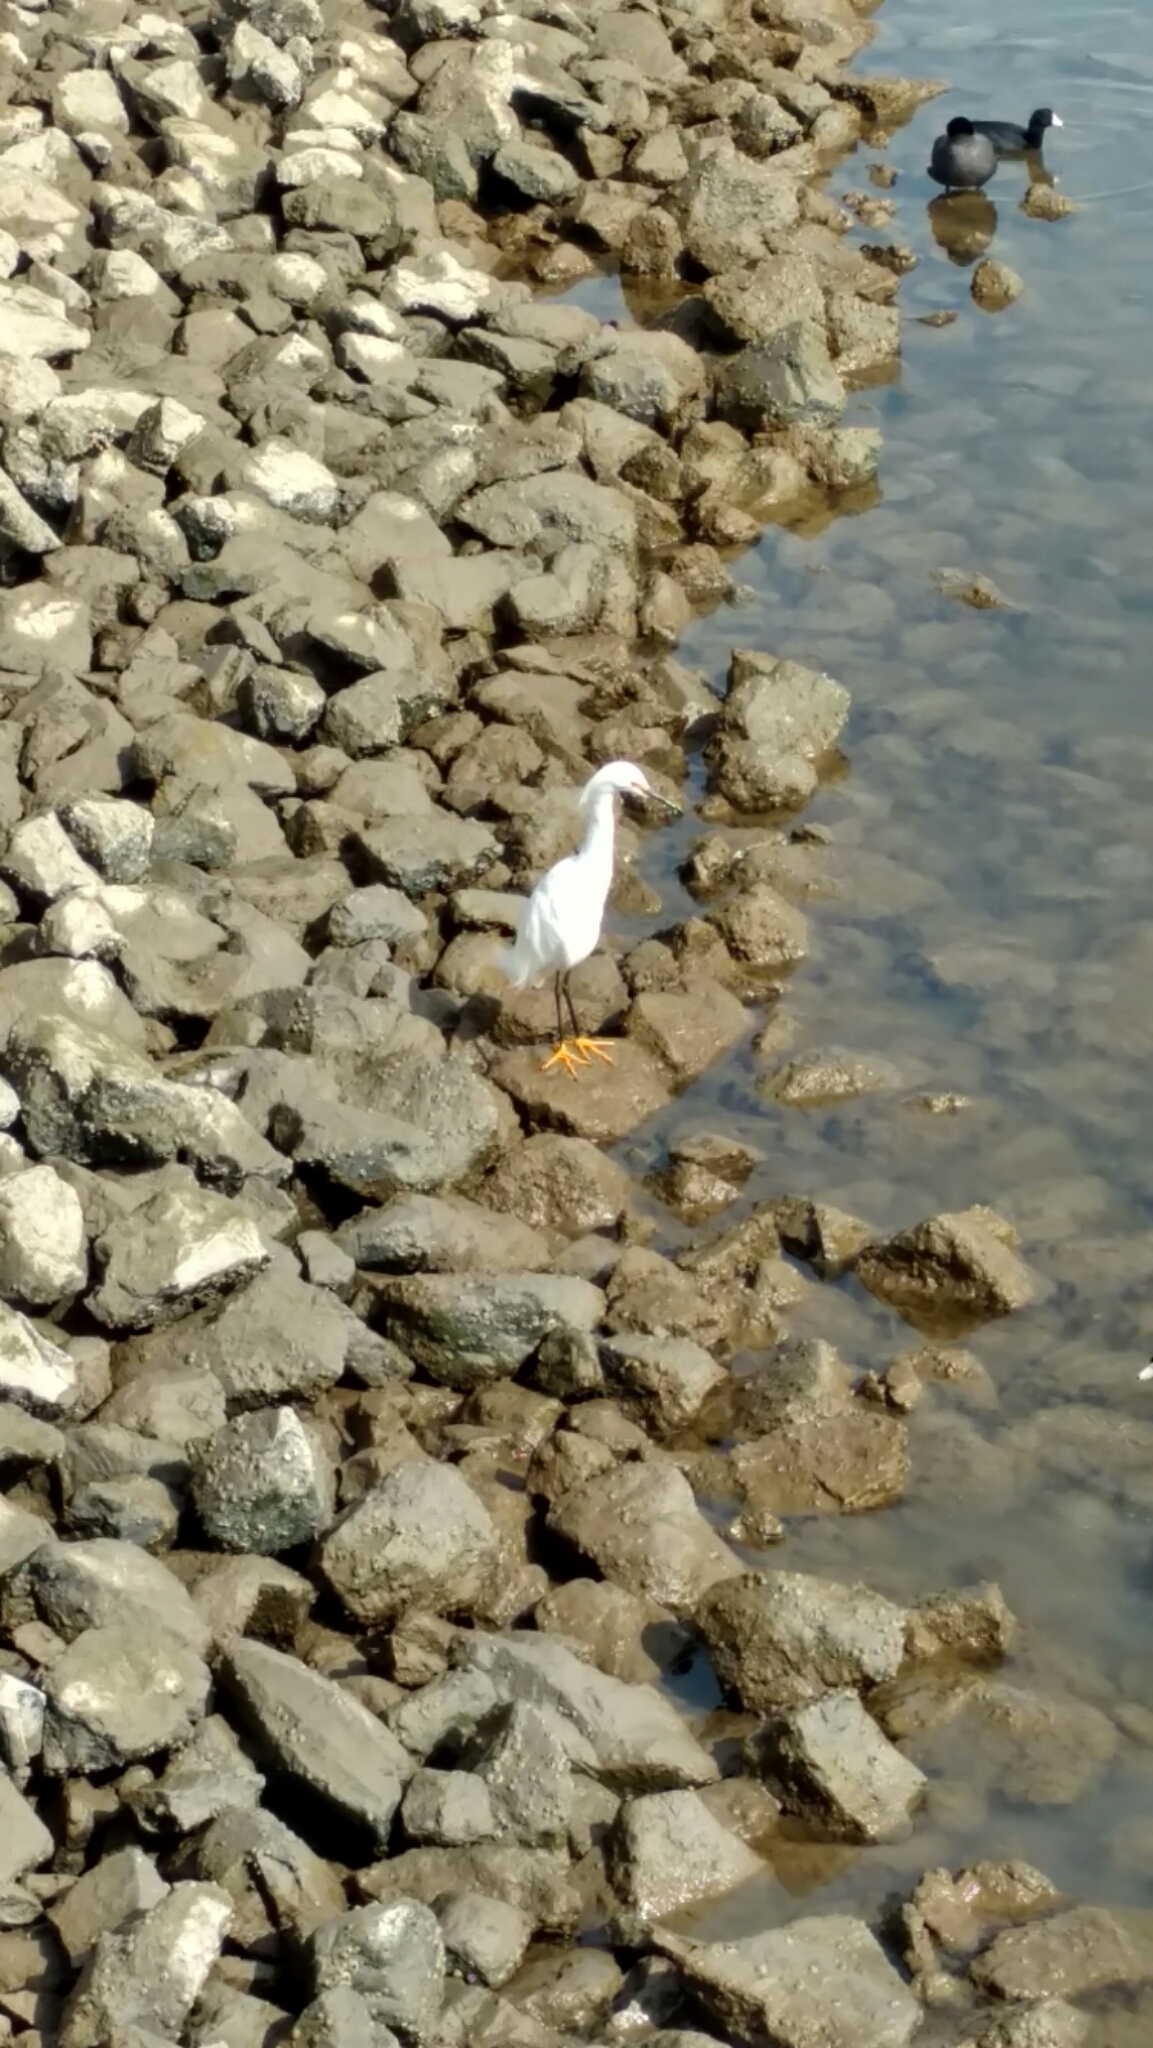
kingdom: Animalia
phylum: Chordata
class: Aves
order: Pelecaniformes
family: Ardeidae
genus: Egretta
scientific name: Egretta thula
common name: Snowy egret
